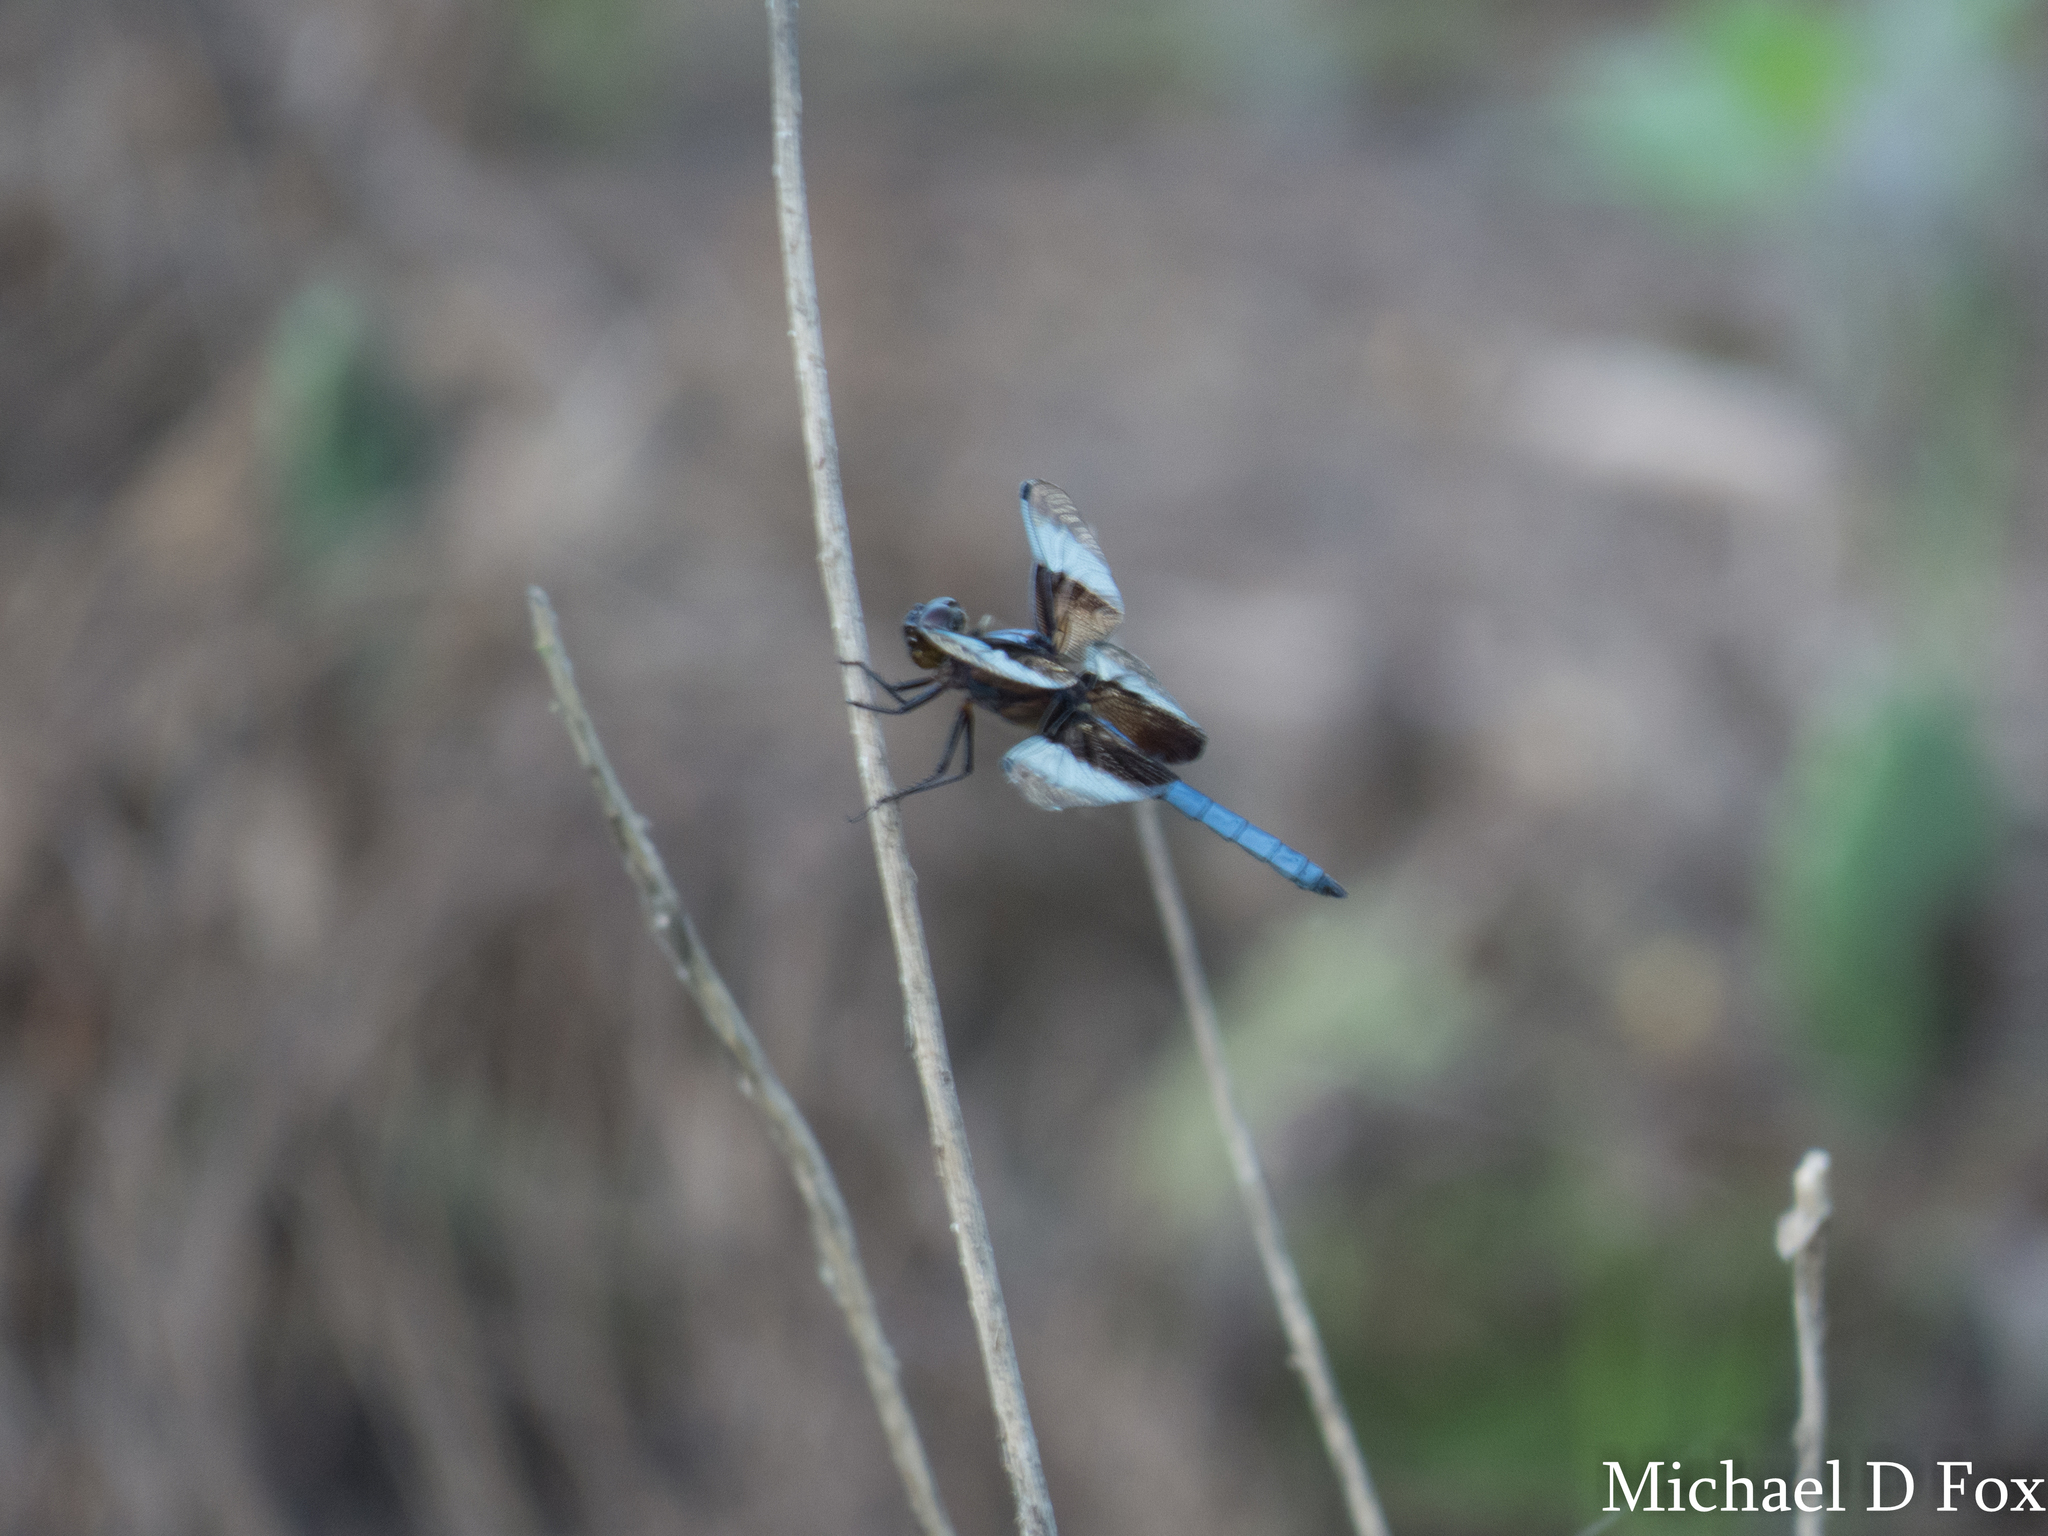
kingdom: Animalia
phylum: Arthropoda
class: Insecta
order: Odonata
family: Libellulidae
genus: Libellula
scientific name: Libellula luctuosa
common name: Widow skimmer
